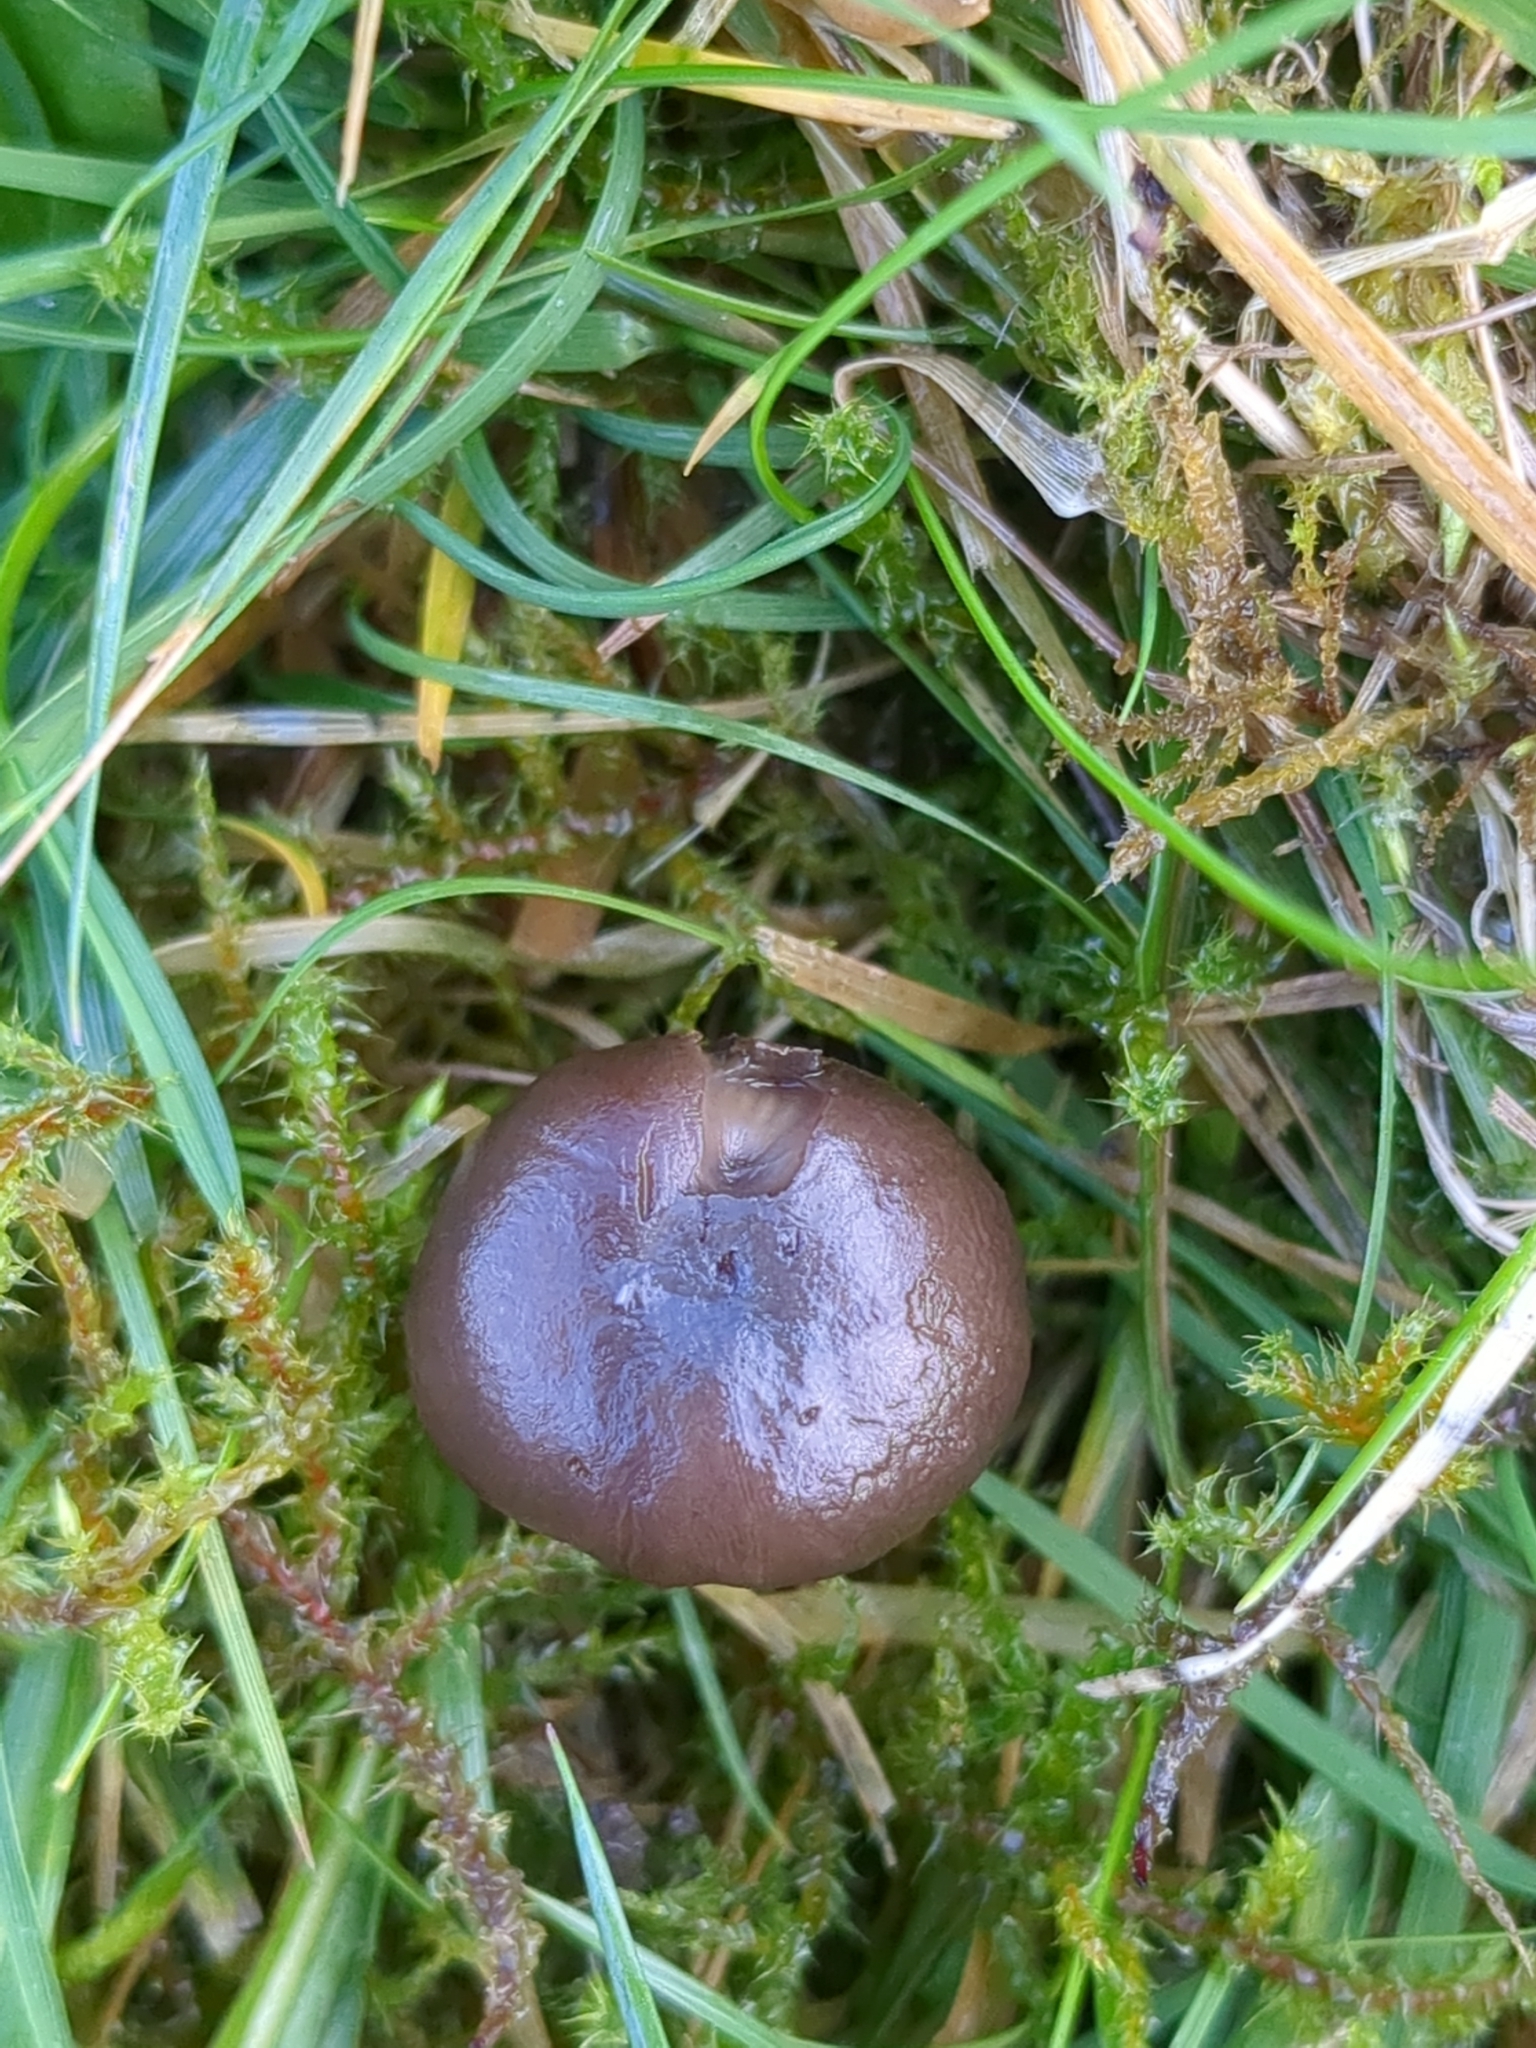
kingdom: Fungi
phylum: Basidiomycota
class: Agaricomycetes
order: Agaricales
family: Clavariaceae
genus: Camarophyllopsis
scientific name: Camarophyllopsis atrovelutina
